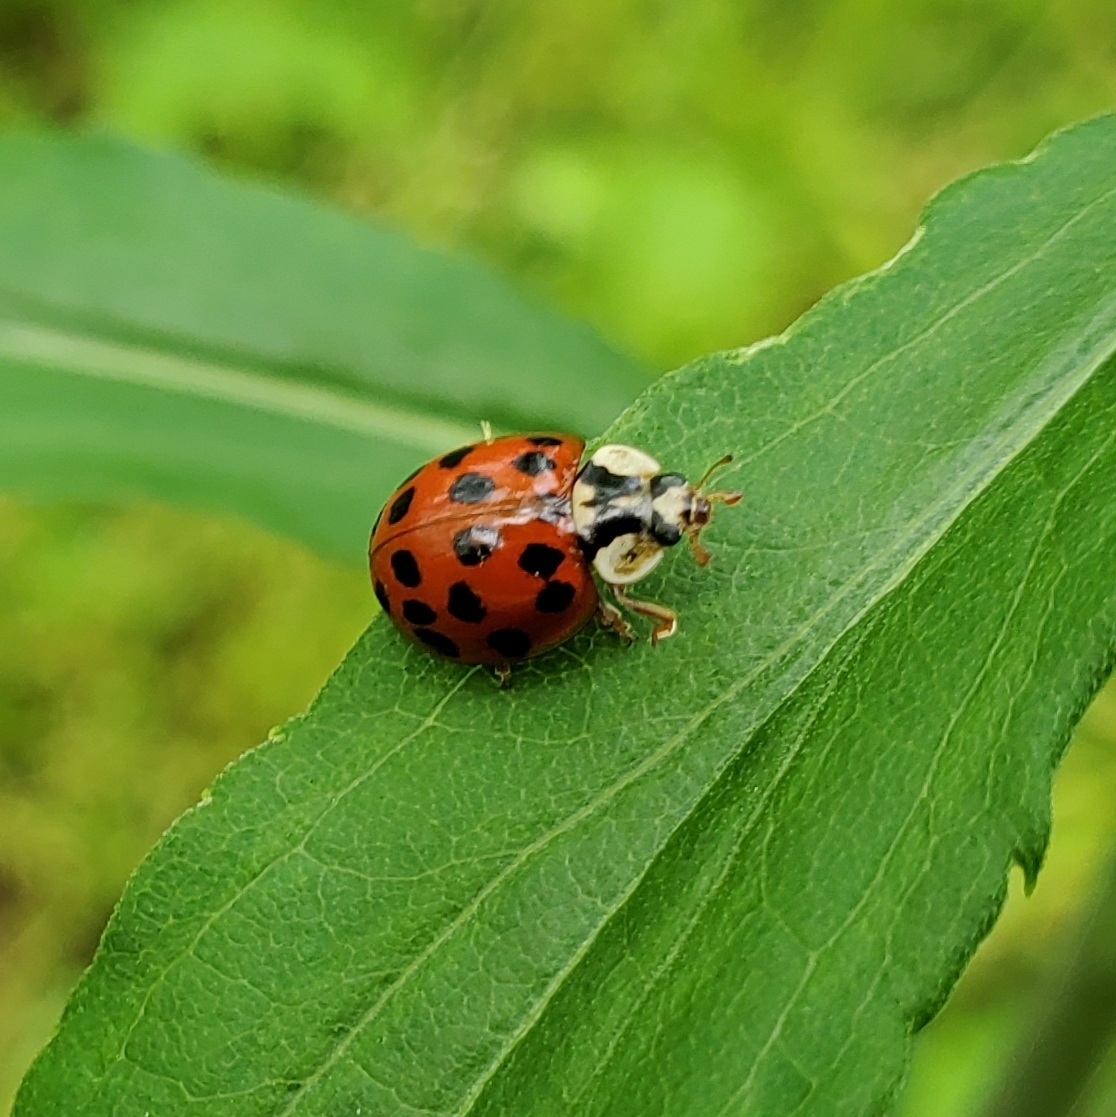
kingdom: Fungi
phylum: Ascomycota
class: Laboulbeniomycetes
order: Laboulbeniales
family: Laboulbeniaceae
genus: Hesperomyces
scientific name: Hesperomyces harmoniae
